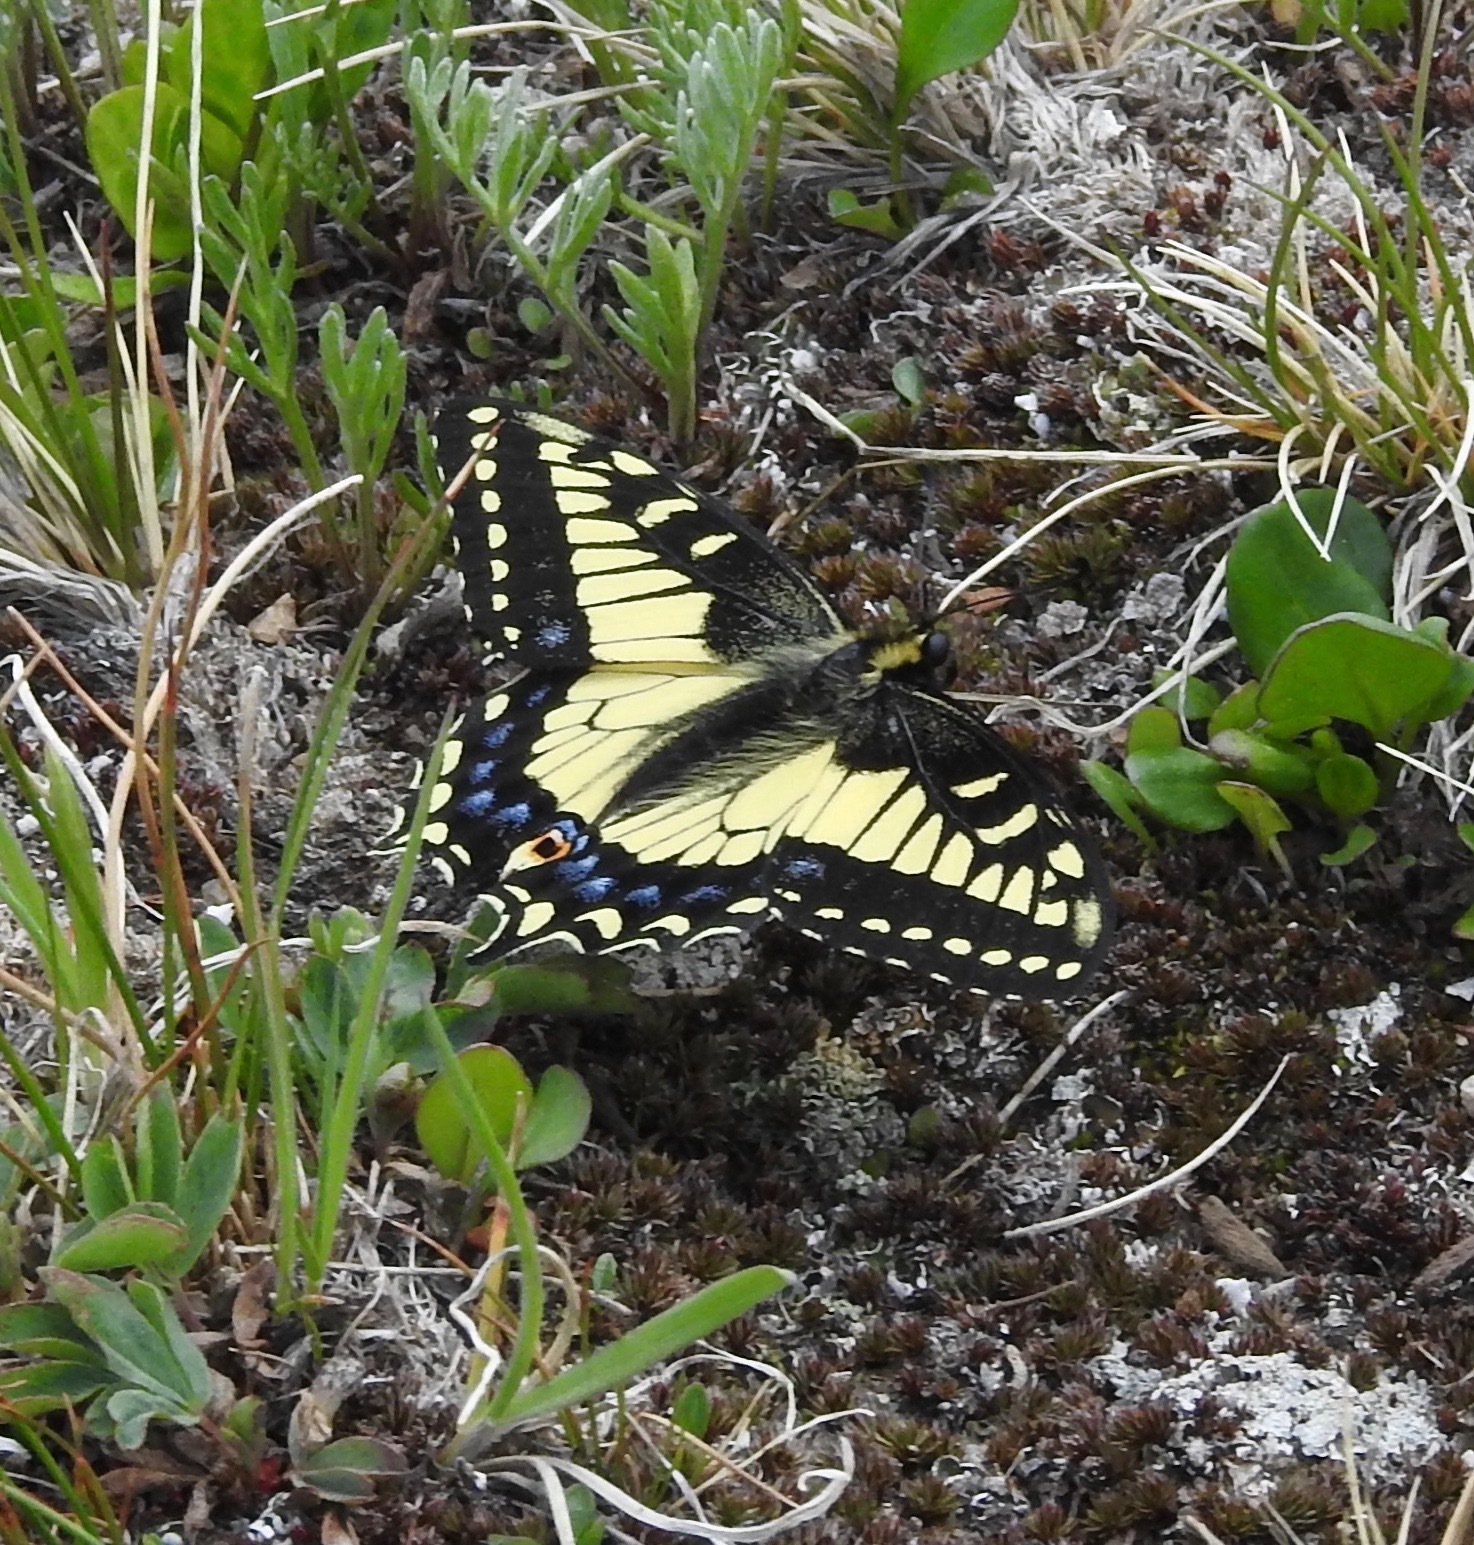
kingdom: Animalia
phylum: Arthropoda
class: Insecta
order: Lepidoptera
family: Papilionidae
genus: Papilio
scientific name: Papilio zelicaon
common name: Anise swallowtail
